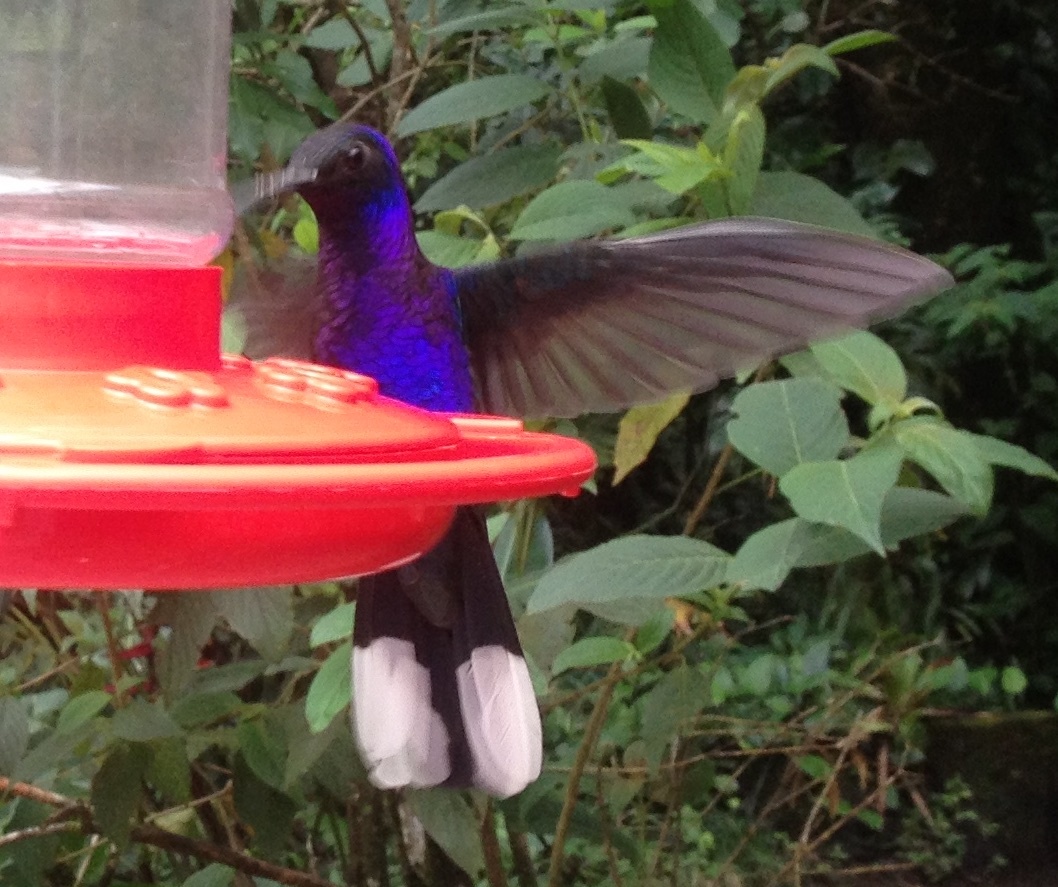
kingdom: Animalia
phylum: Chordata
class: Aves
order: Apodiformes
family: Trochilidae
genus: Campylopterus
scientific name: Campylopterus hemileucurus
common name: Violet sabrewing
